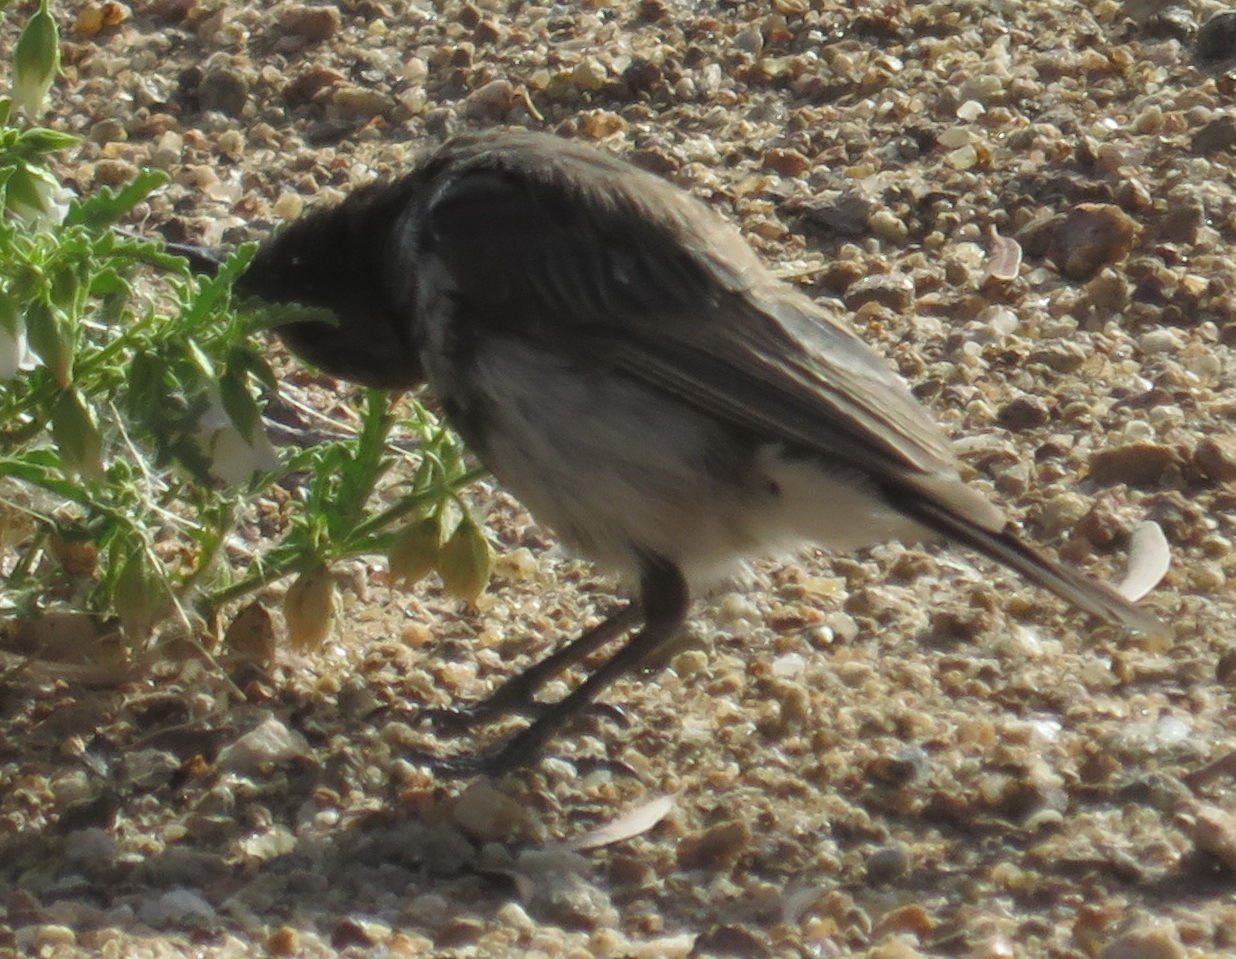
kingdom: Animalia
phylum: Chordata
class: Aves
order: Passeriformes
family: Nectariniidae
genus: Cinnyris
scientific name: Cinnyris fuscus
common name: Dusky sunbird
